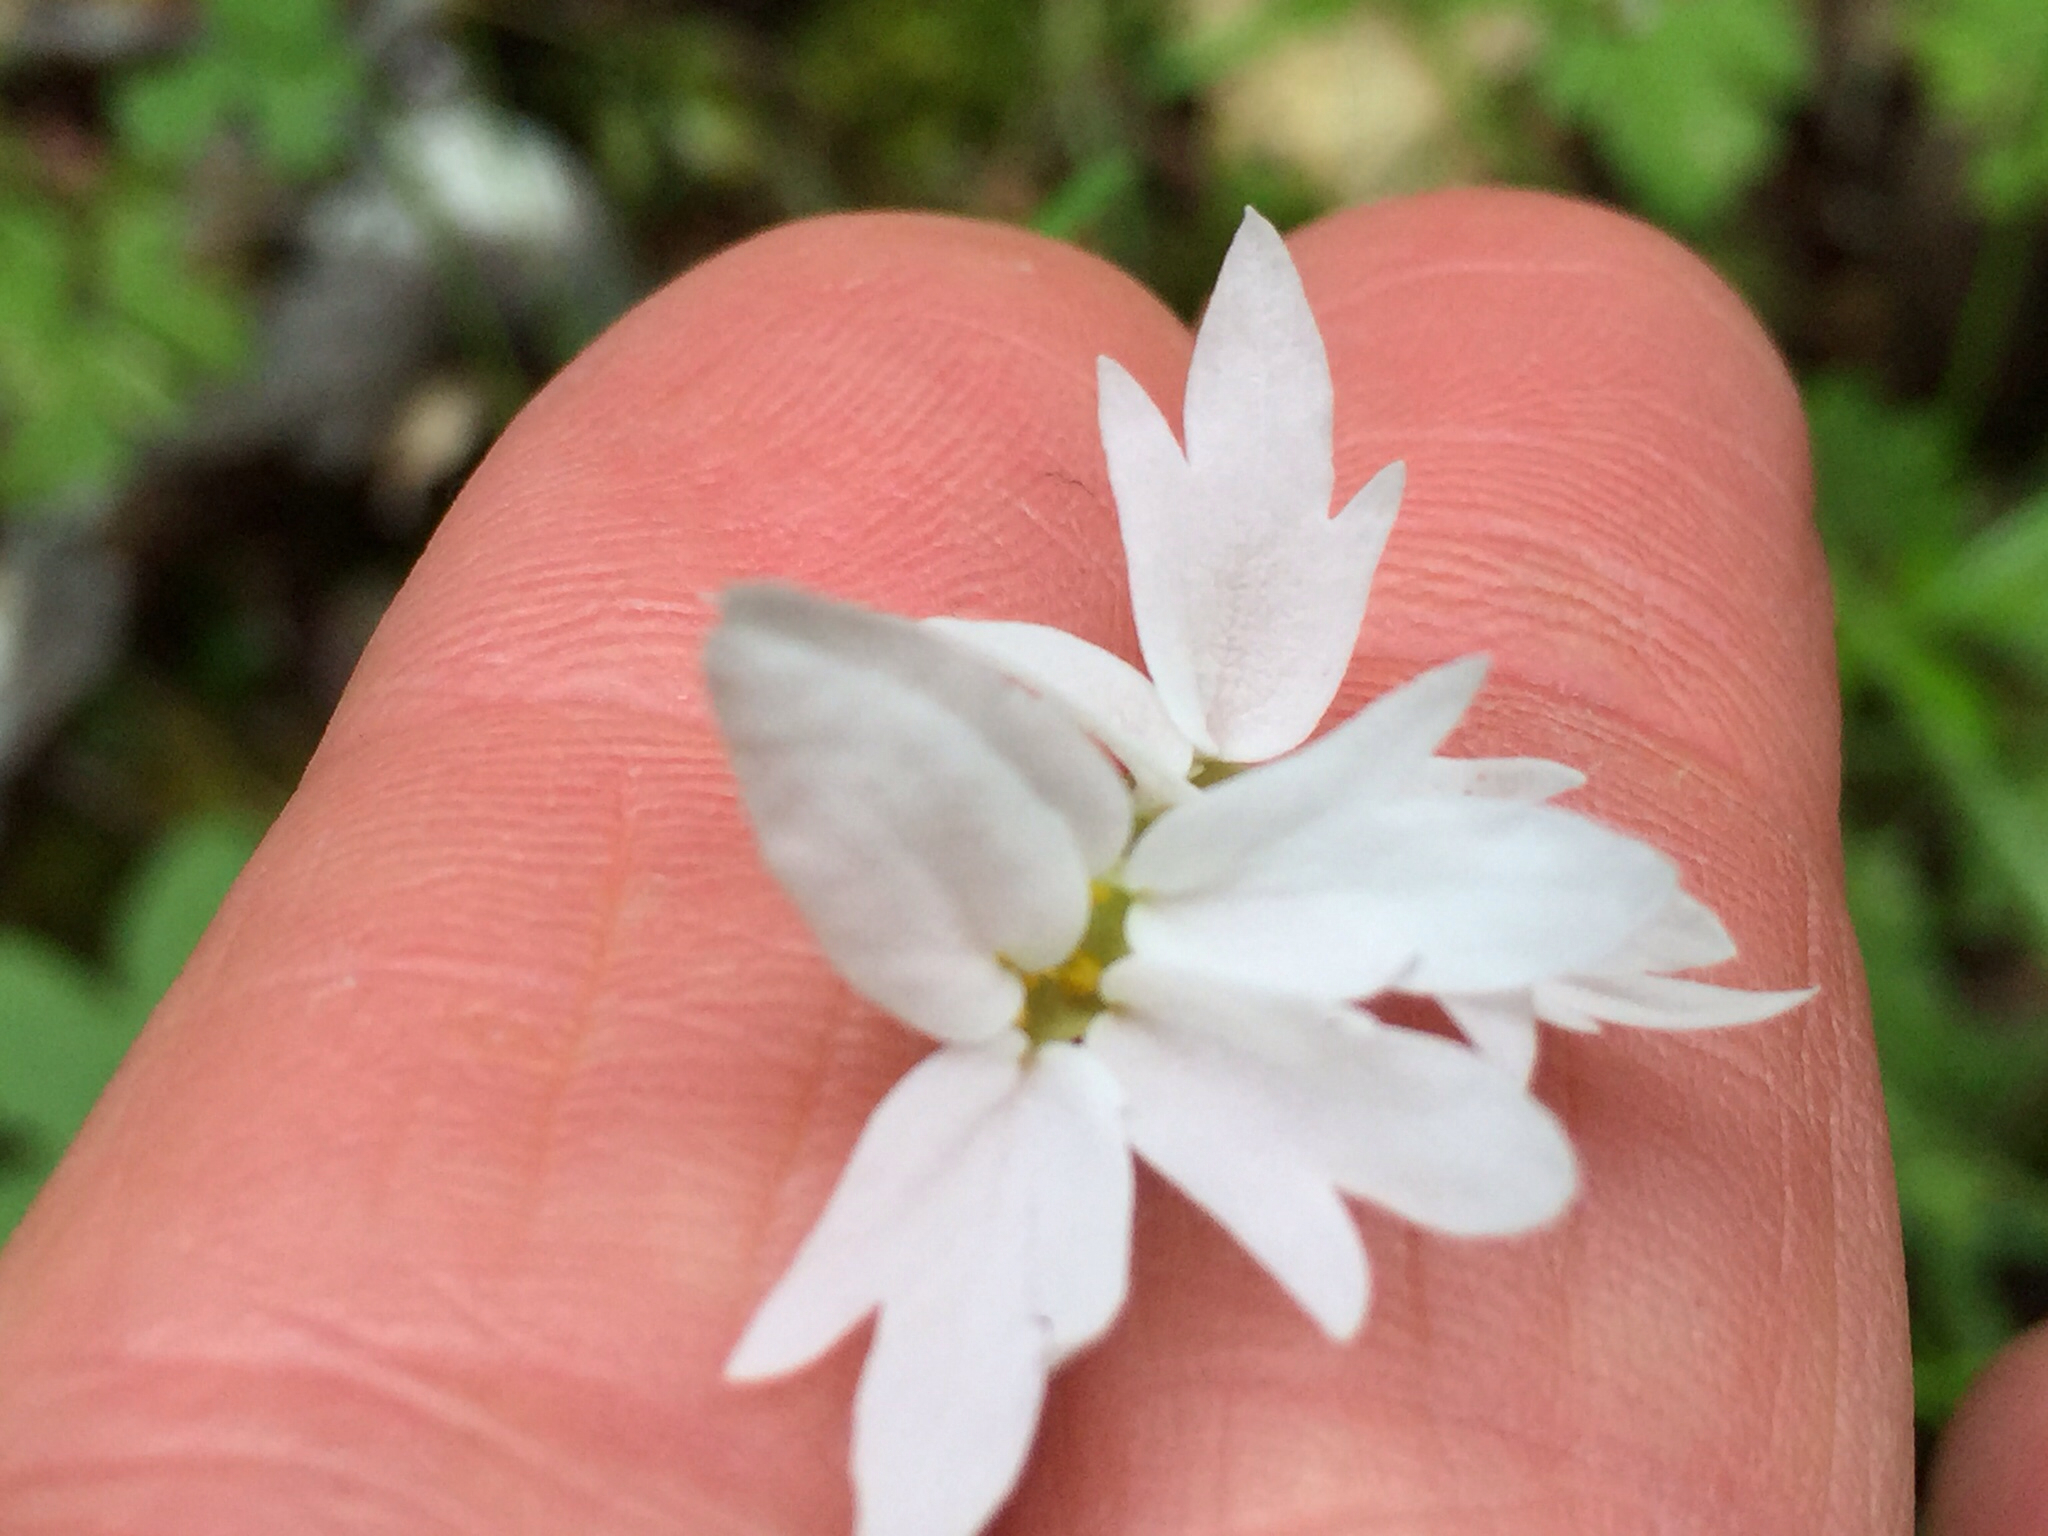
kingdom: Plantae
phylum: Tracheophyta
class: Magnoliopsida
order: Saxifragales
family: Saxifragaceae
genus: Lithophragma
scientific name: Lithophragma affine
